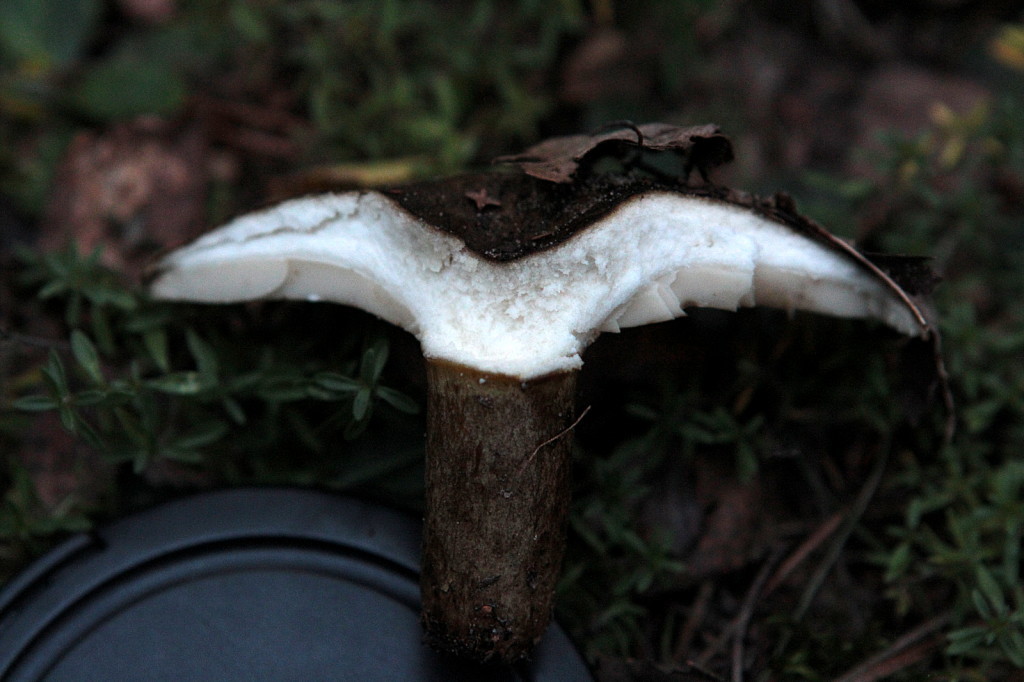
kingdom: Fungi
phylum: Basidiomycota
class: Agaricomycetes
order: Russulales
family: Russulaceae
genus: Lactarius
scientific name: Lactarius turpis
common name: Ugly milk-cap
